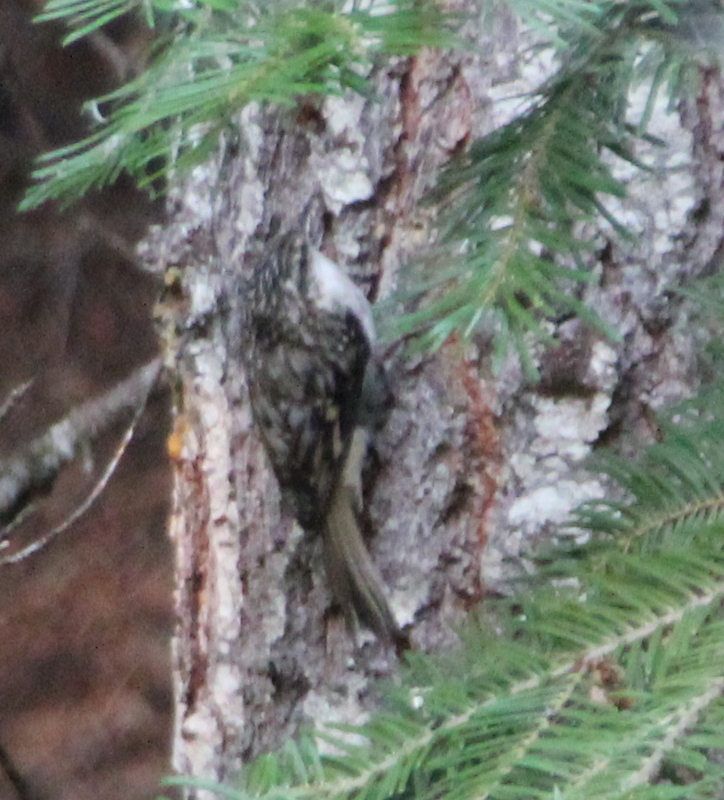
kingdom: Animalia
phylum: Chordata
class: Aves
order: Passeriformes
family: Certhiidae
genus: Certhia
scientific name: Certhia americana
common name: Brown creeper
